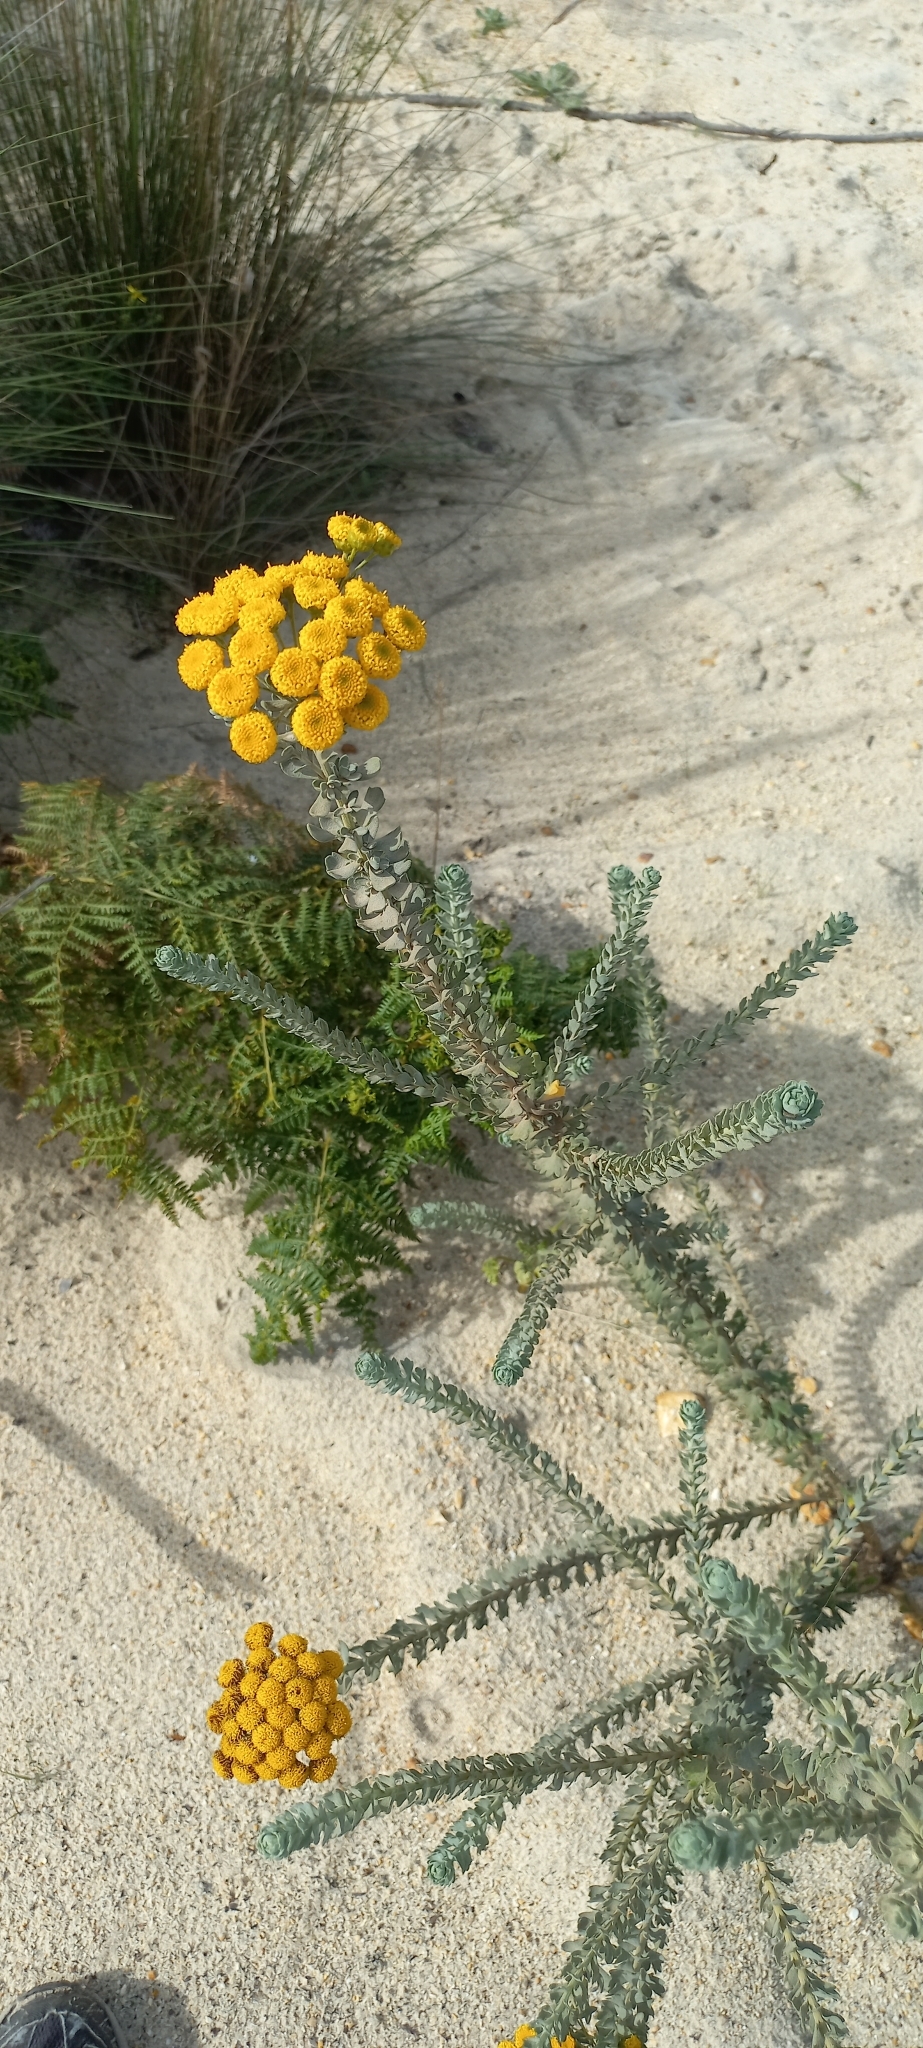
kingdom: Plantae
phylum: Tracheophyta
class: Magnoliopsida
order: Asterales
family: Asteraceae
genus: Athanasia
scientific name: Athanasia trifurcata
